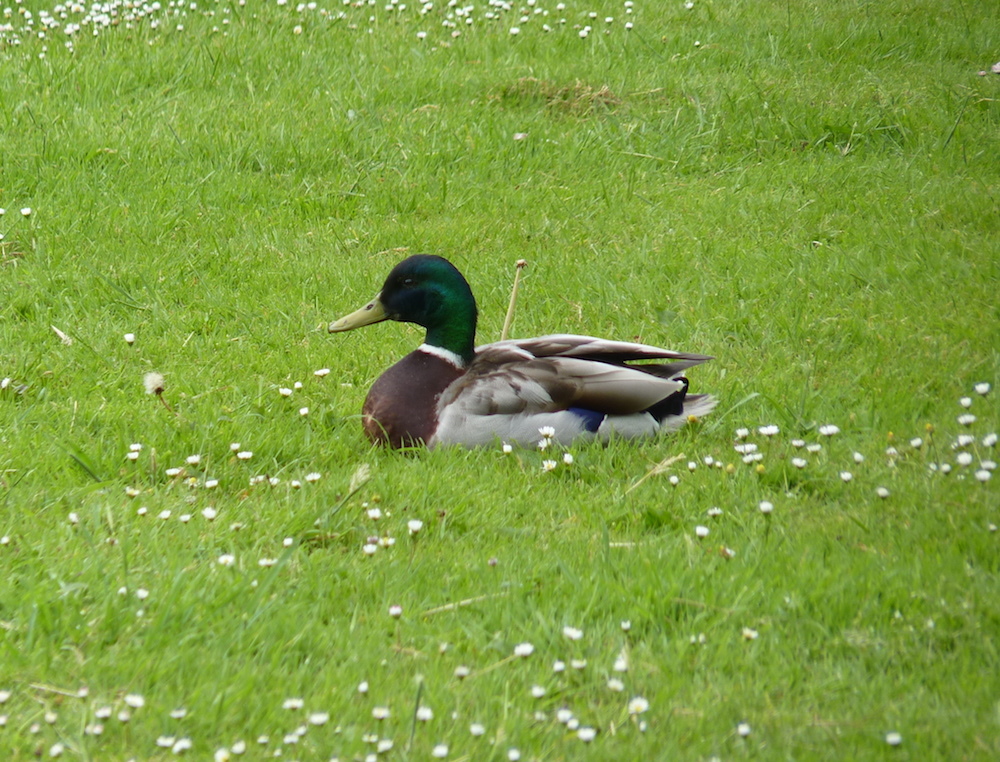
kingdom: Animalia
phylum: Chordata
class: Aves
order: Anseriformes
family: Anatidae
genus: Anas
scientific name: Anas platyrhynchos
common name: Mallard
